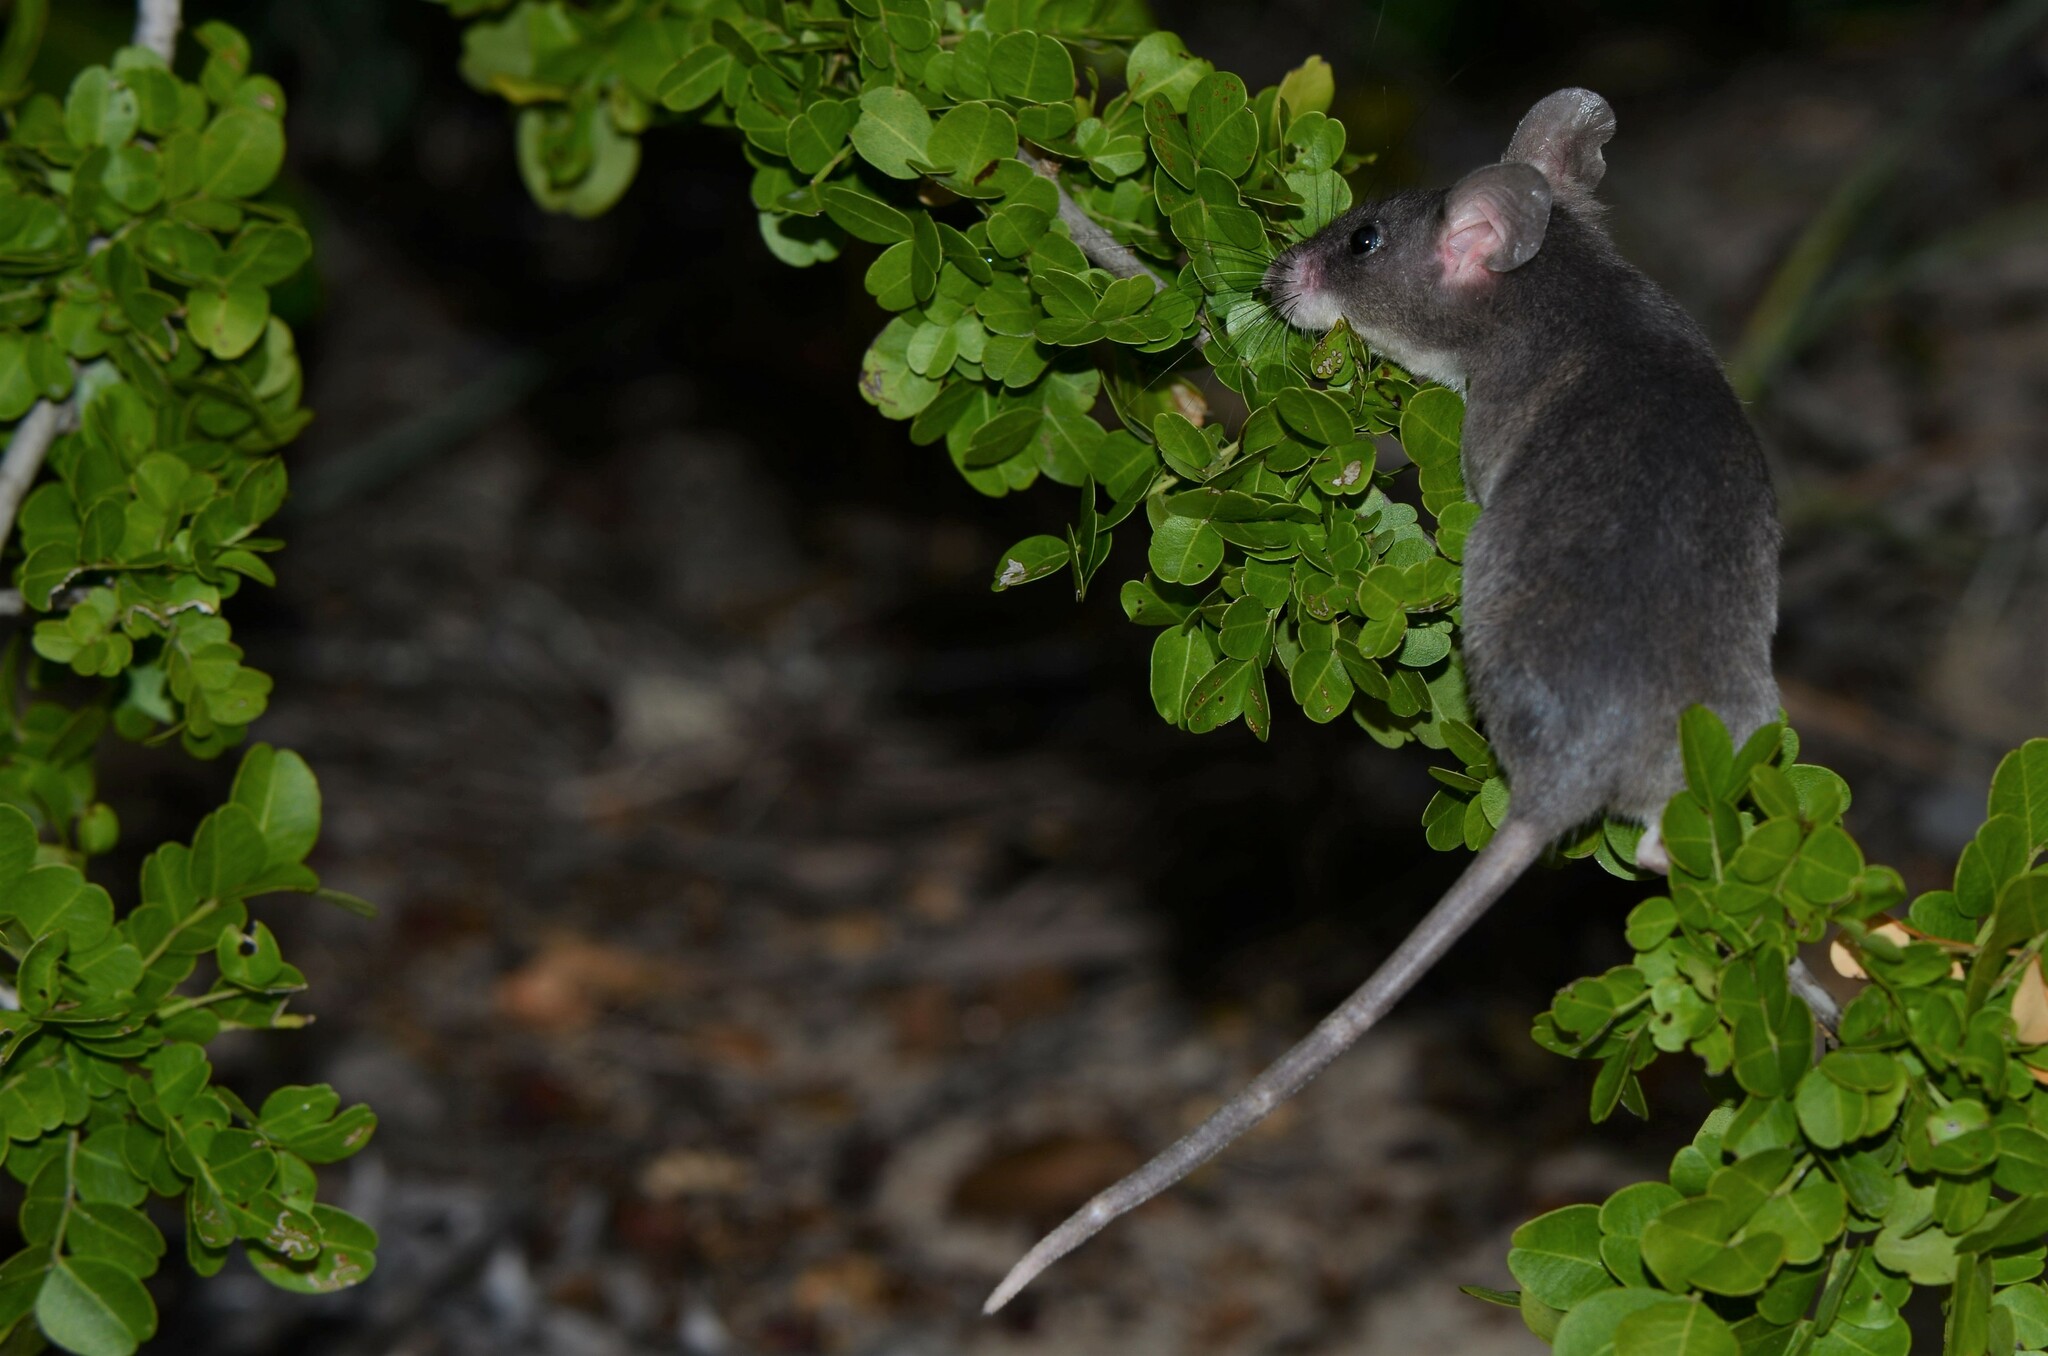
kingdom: Animalia
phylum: Chordata
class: Mammalia
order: Rodentia
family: Nesomyidae
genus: Beamys
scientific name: Beamys hindei
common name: Lesser hamster-rat, long-tailed pouched rat
